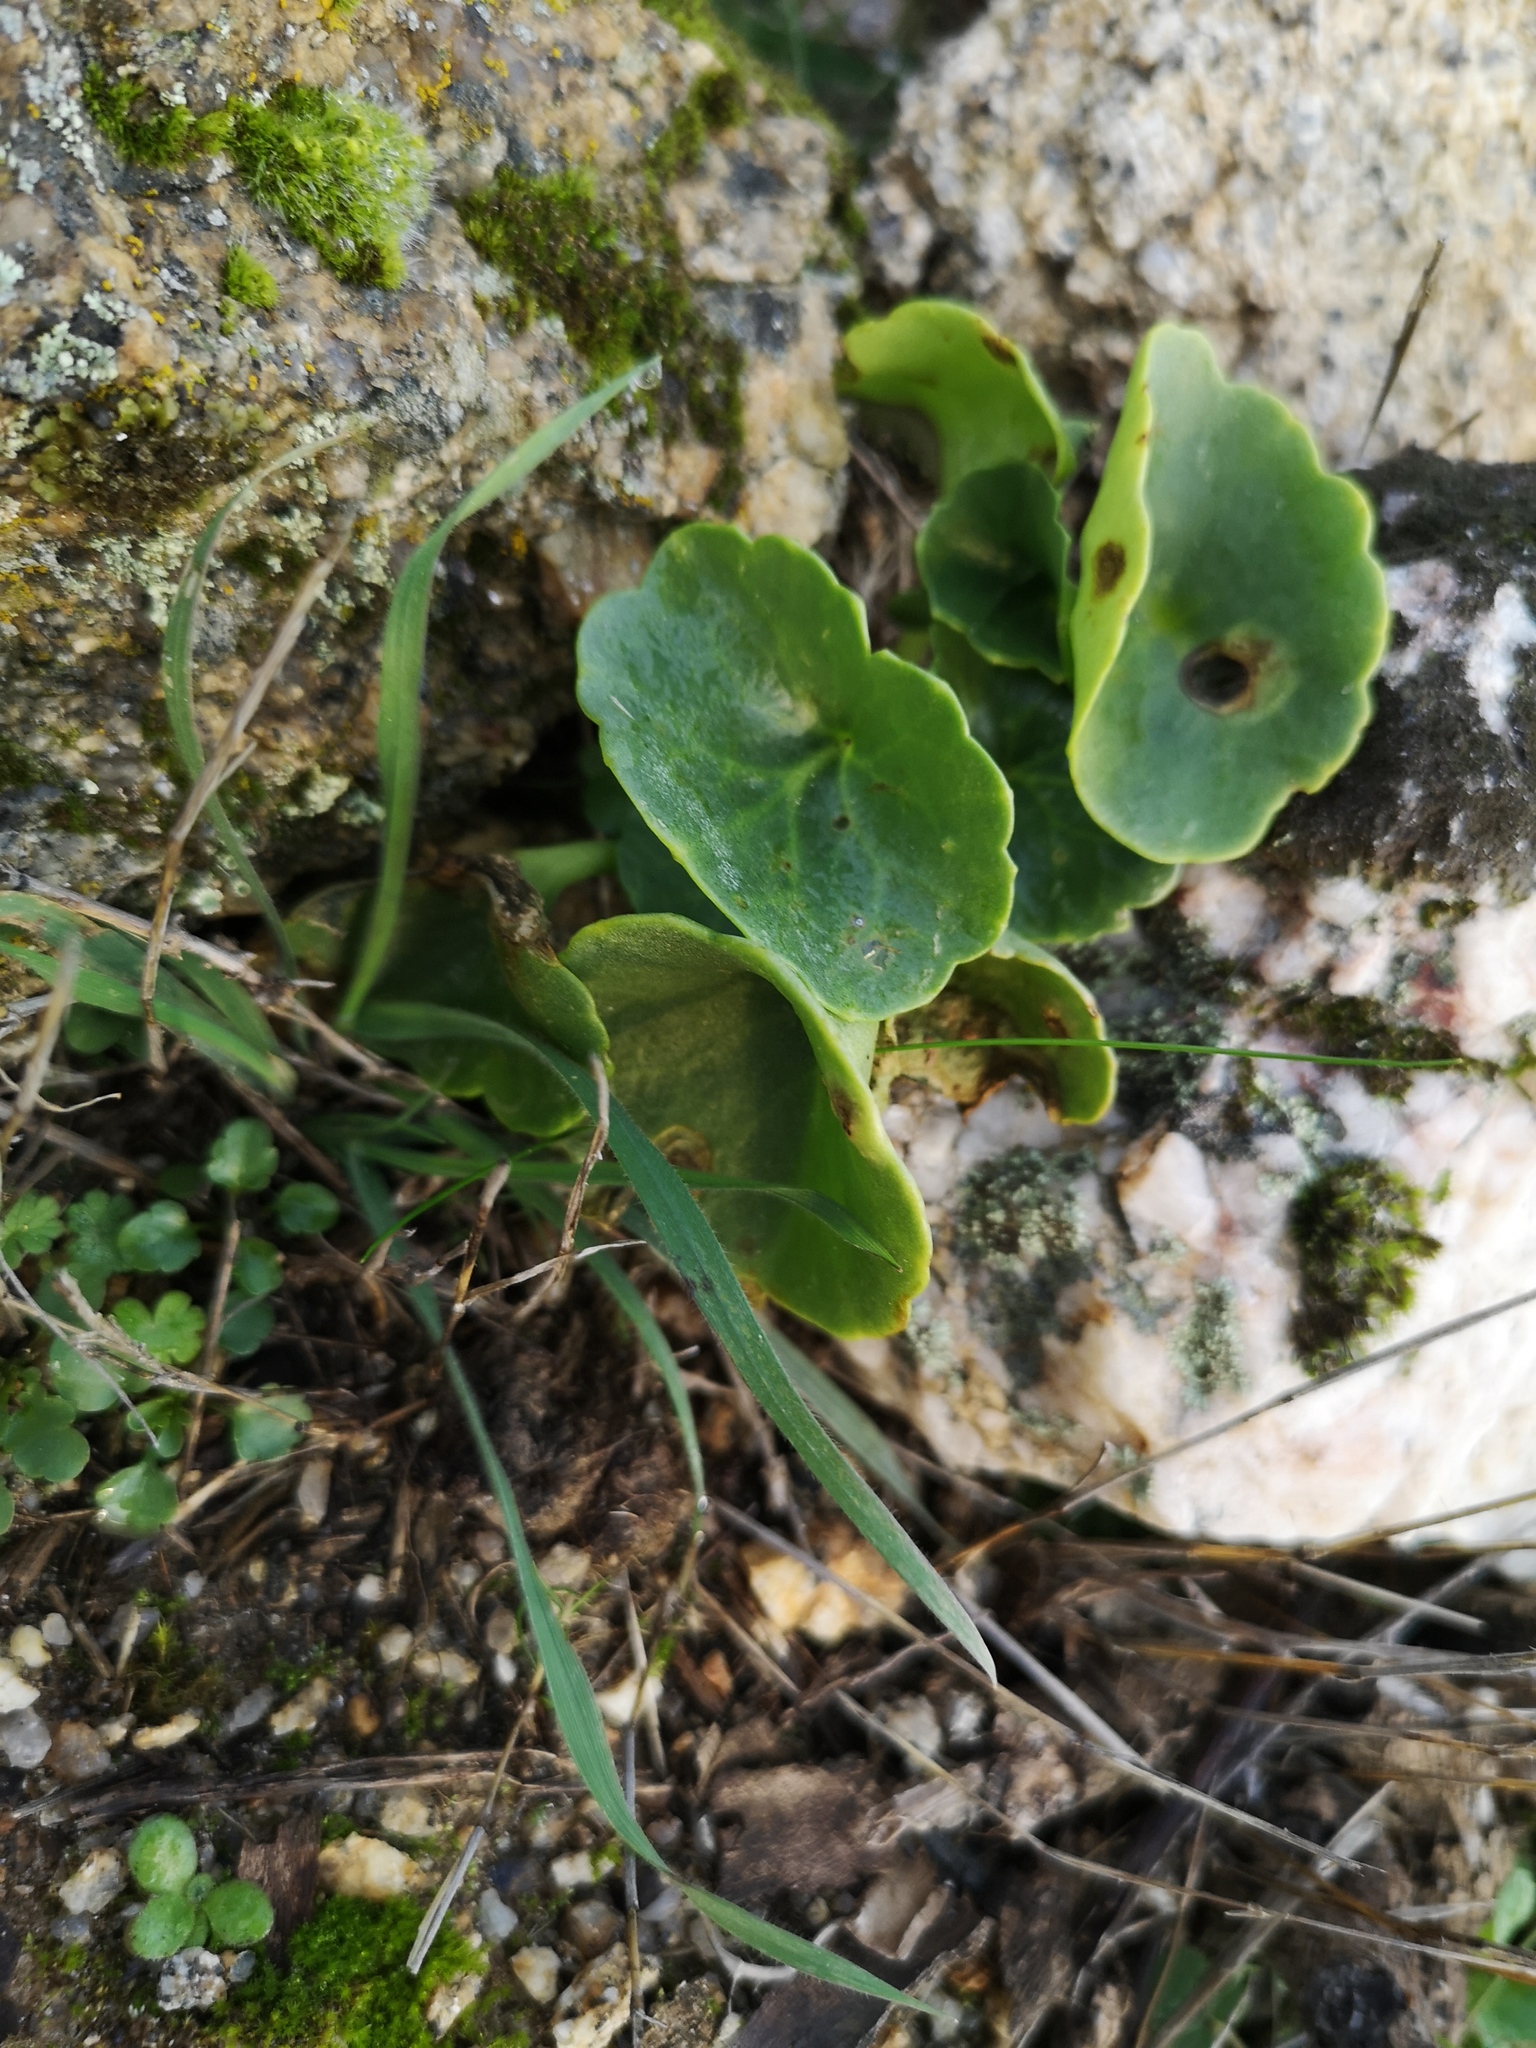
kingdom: Plantae
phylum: Tracheophyta
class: Magnoliopsida
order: Saxifragales
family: Crassulaceae
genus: Umbilicus
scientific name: Umbilicus rupestris
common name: Navelwort
